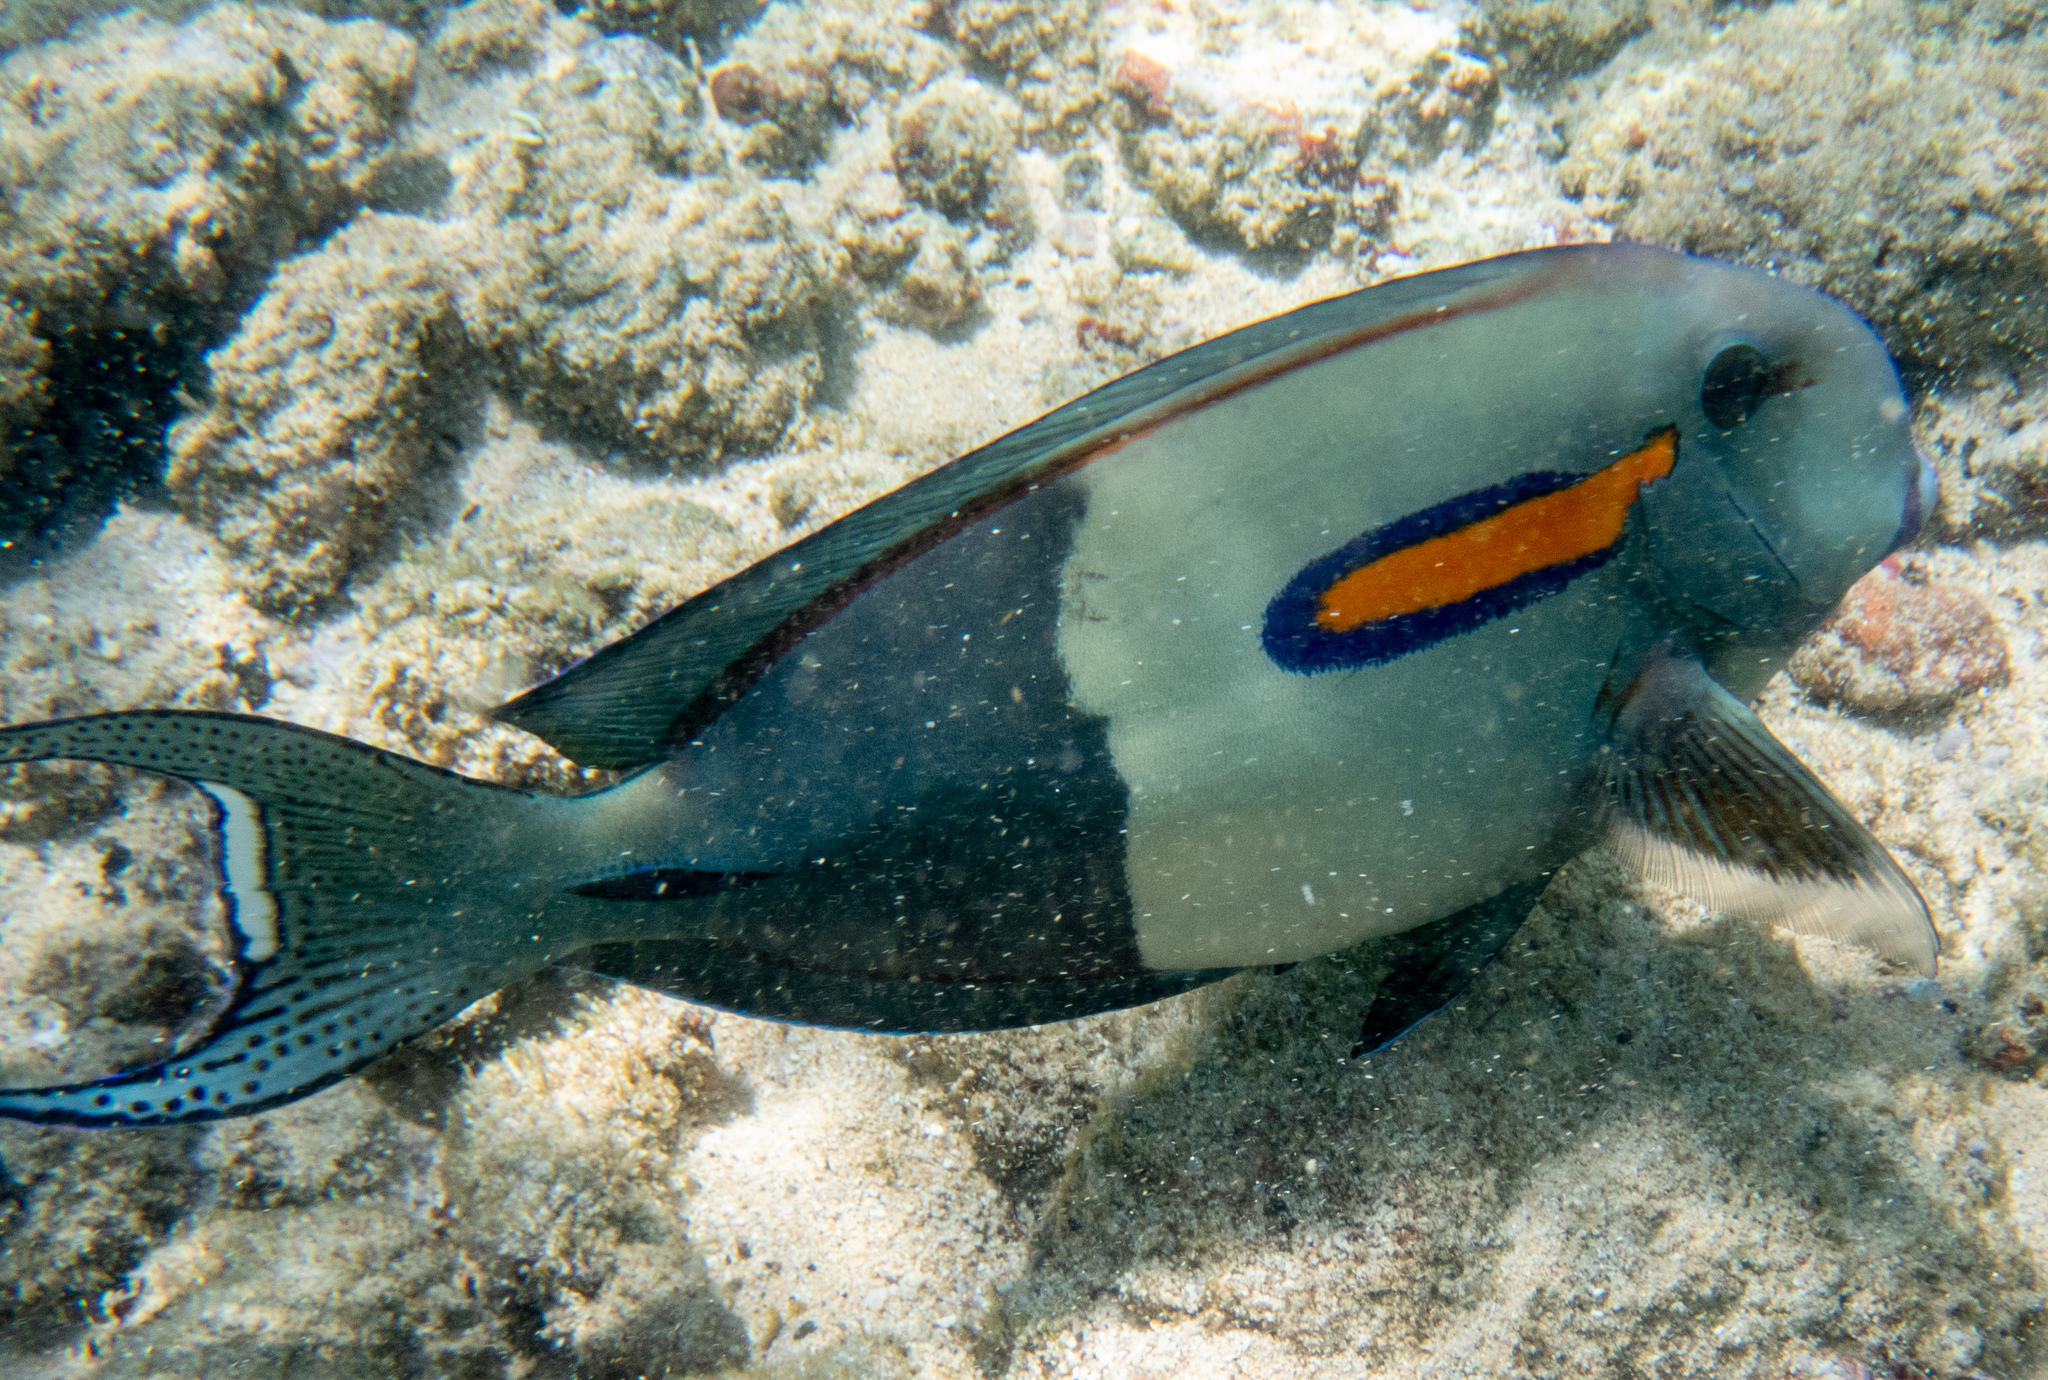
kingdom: Animalia
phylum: Chordata
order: Perciformes
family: Acanthuridae
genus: Acanthurus
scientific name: Acanthurus olivaceus
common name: Gendarme fish
